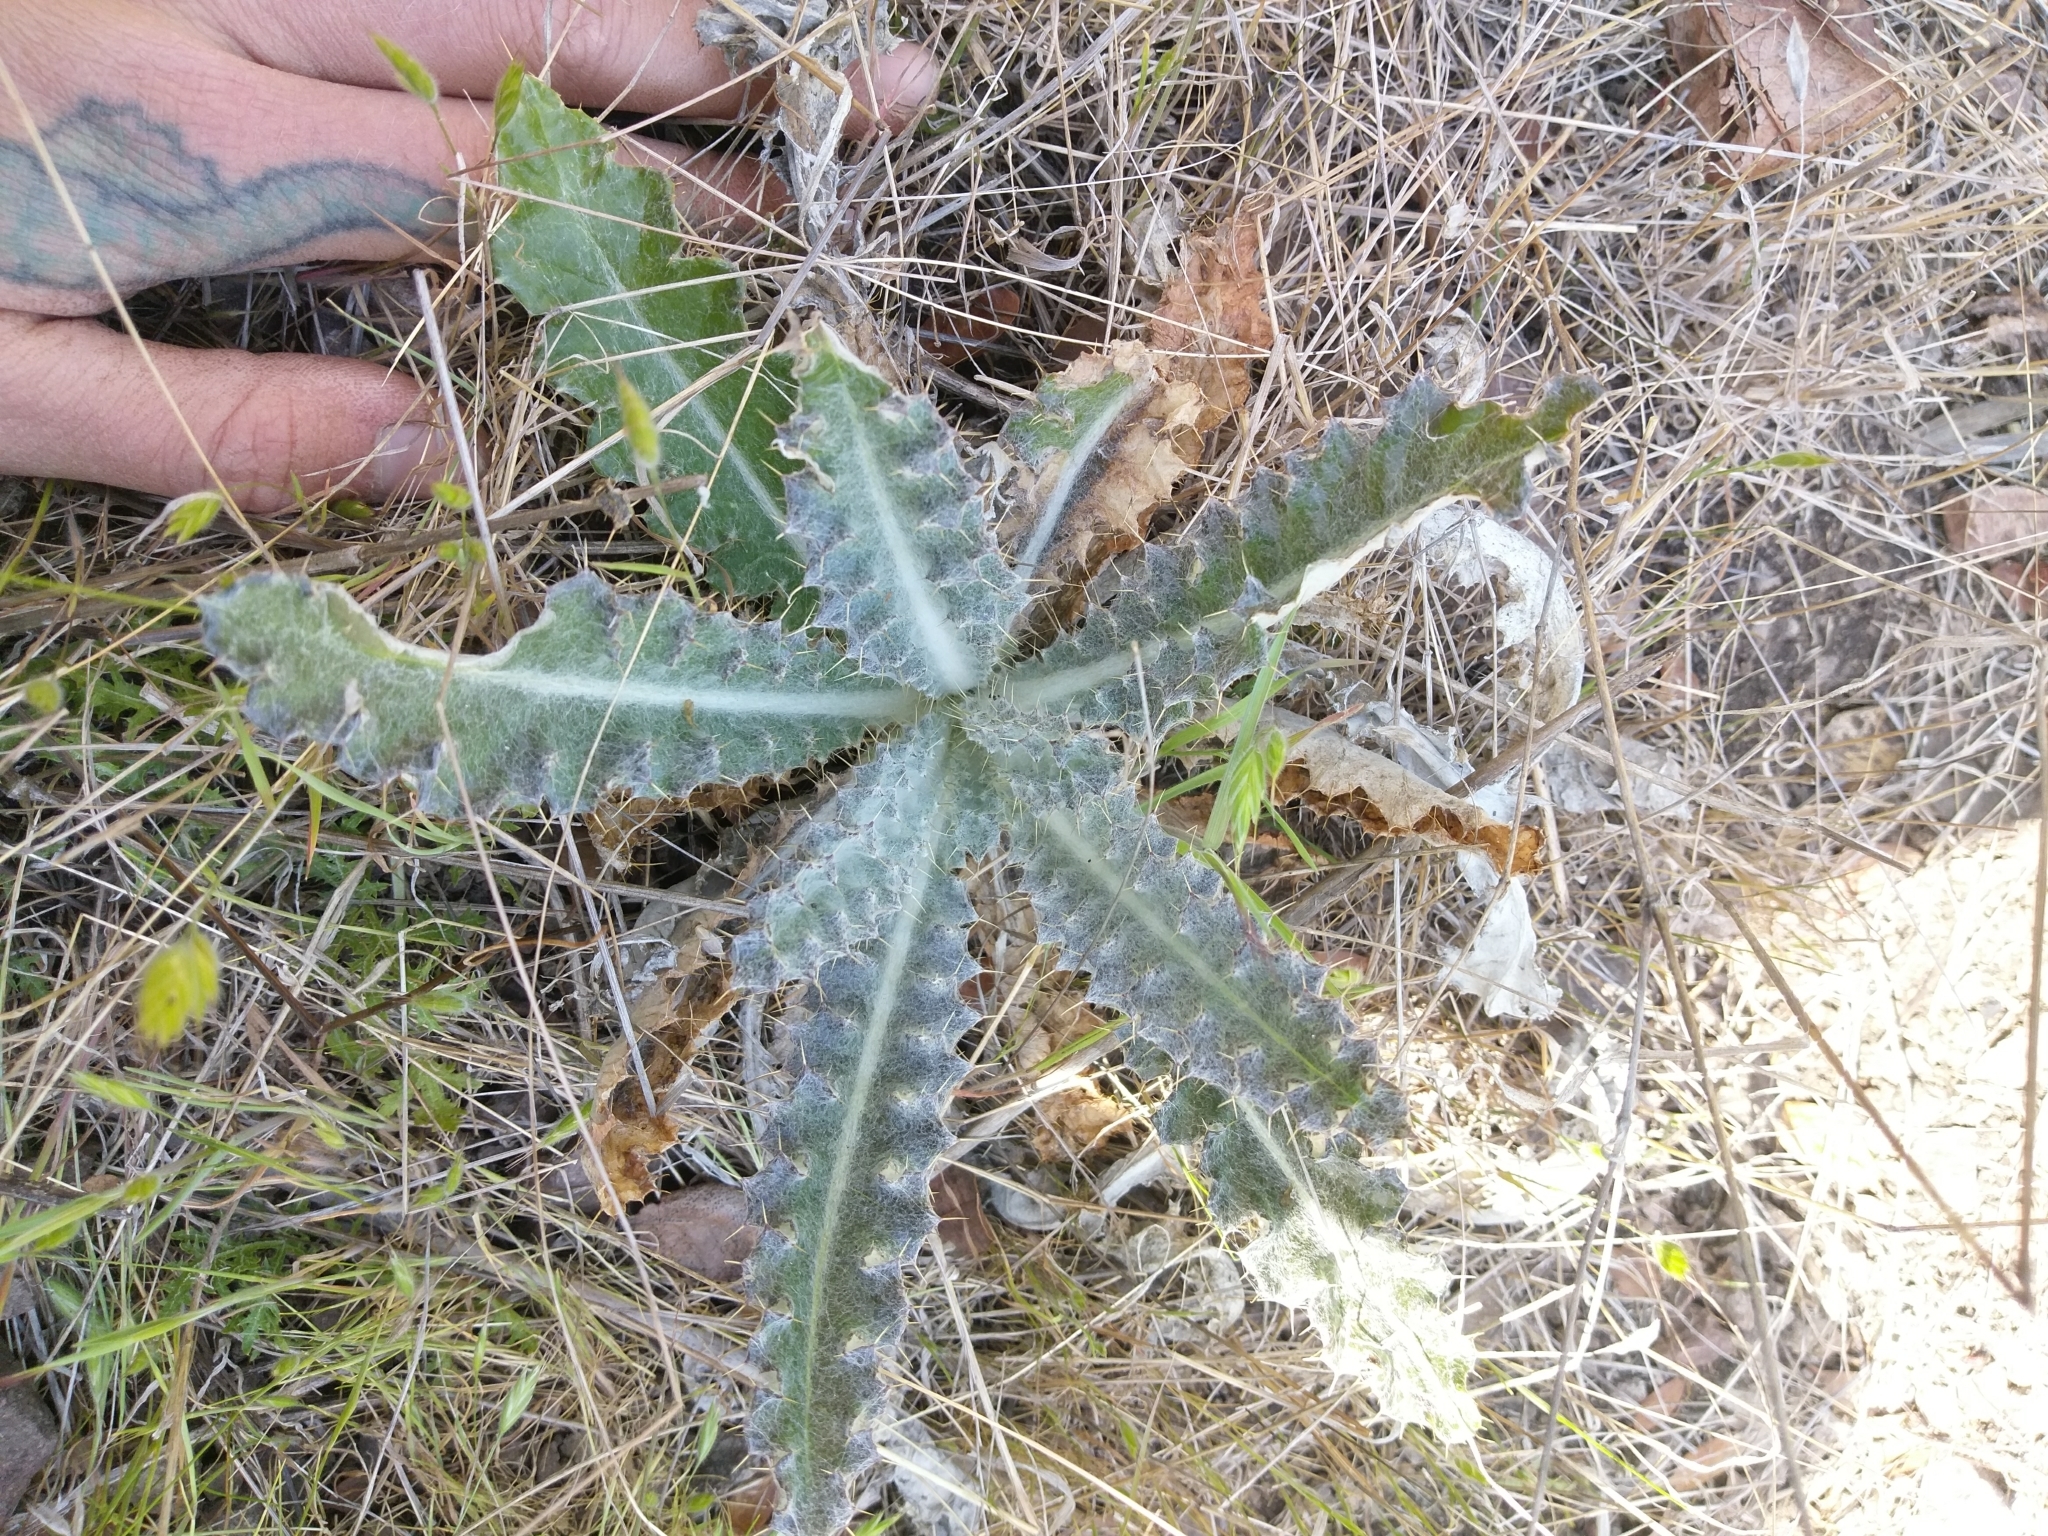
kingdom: Plantae
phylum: Tracheophyta
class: Magnoliopsida
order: Asterales
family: Asteraceae
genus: Cirsium
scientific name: Cirsium occidentale
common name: Western thistle
